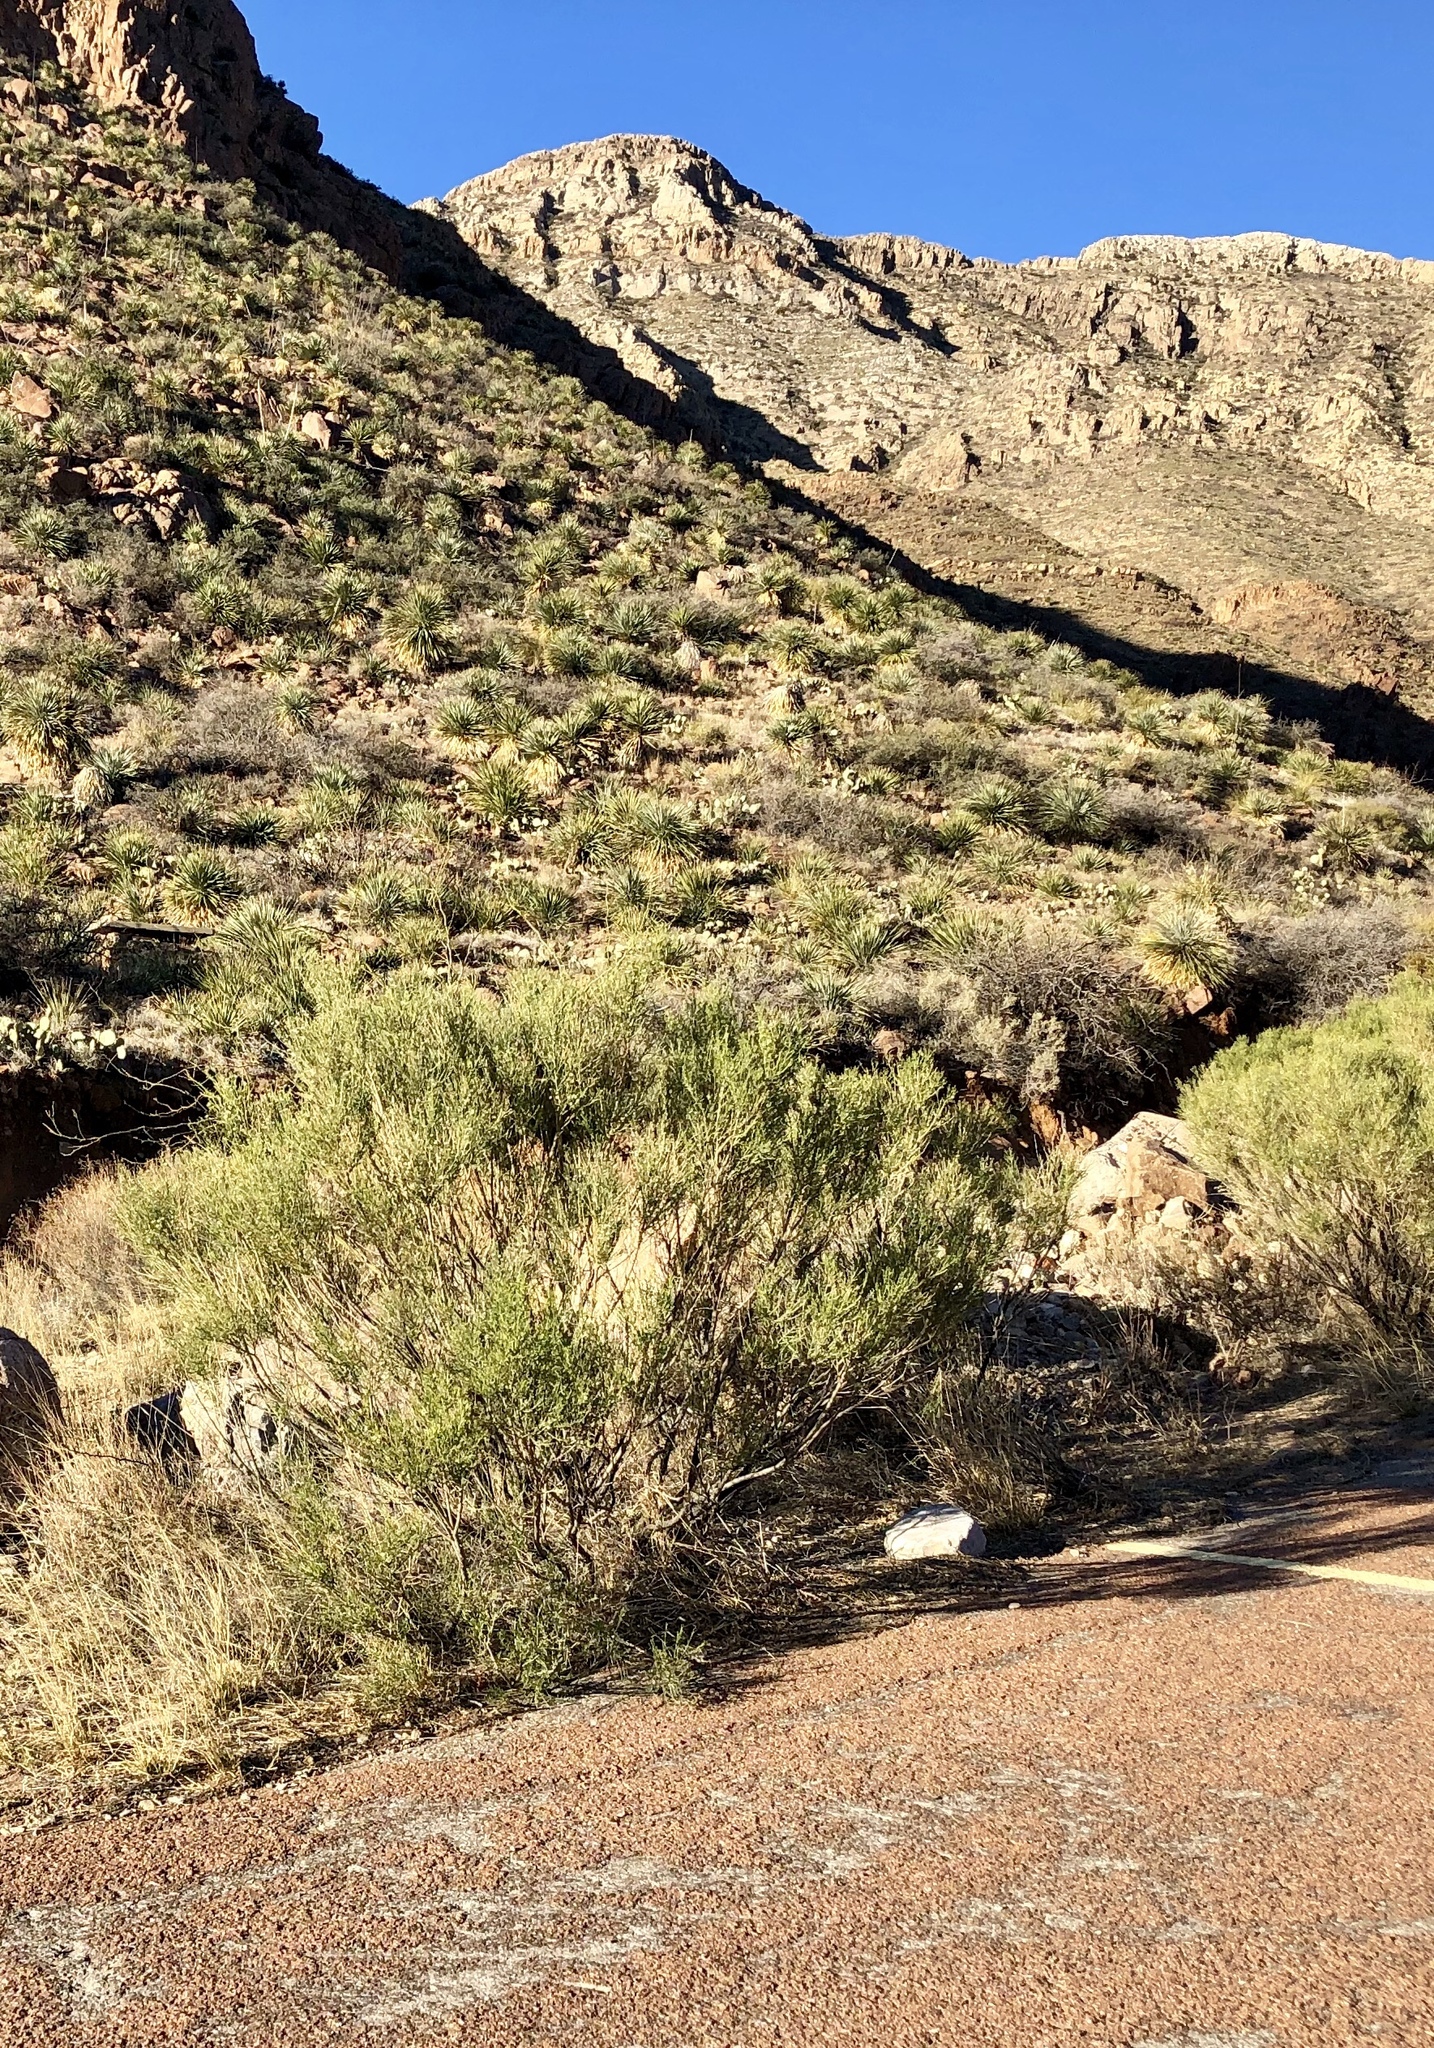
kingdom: Plantae
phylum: Tracheophyta
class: Magnoliopsida
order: Asterales
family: Asteraceae
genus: Baccharis
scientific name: Baccharis sarothroides
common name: Desert-broom
